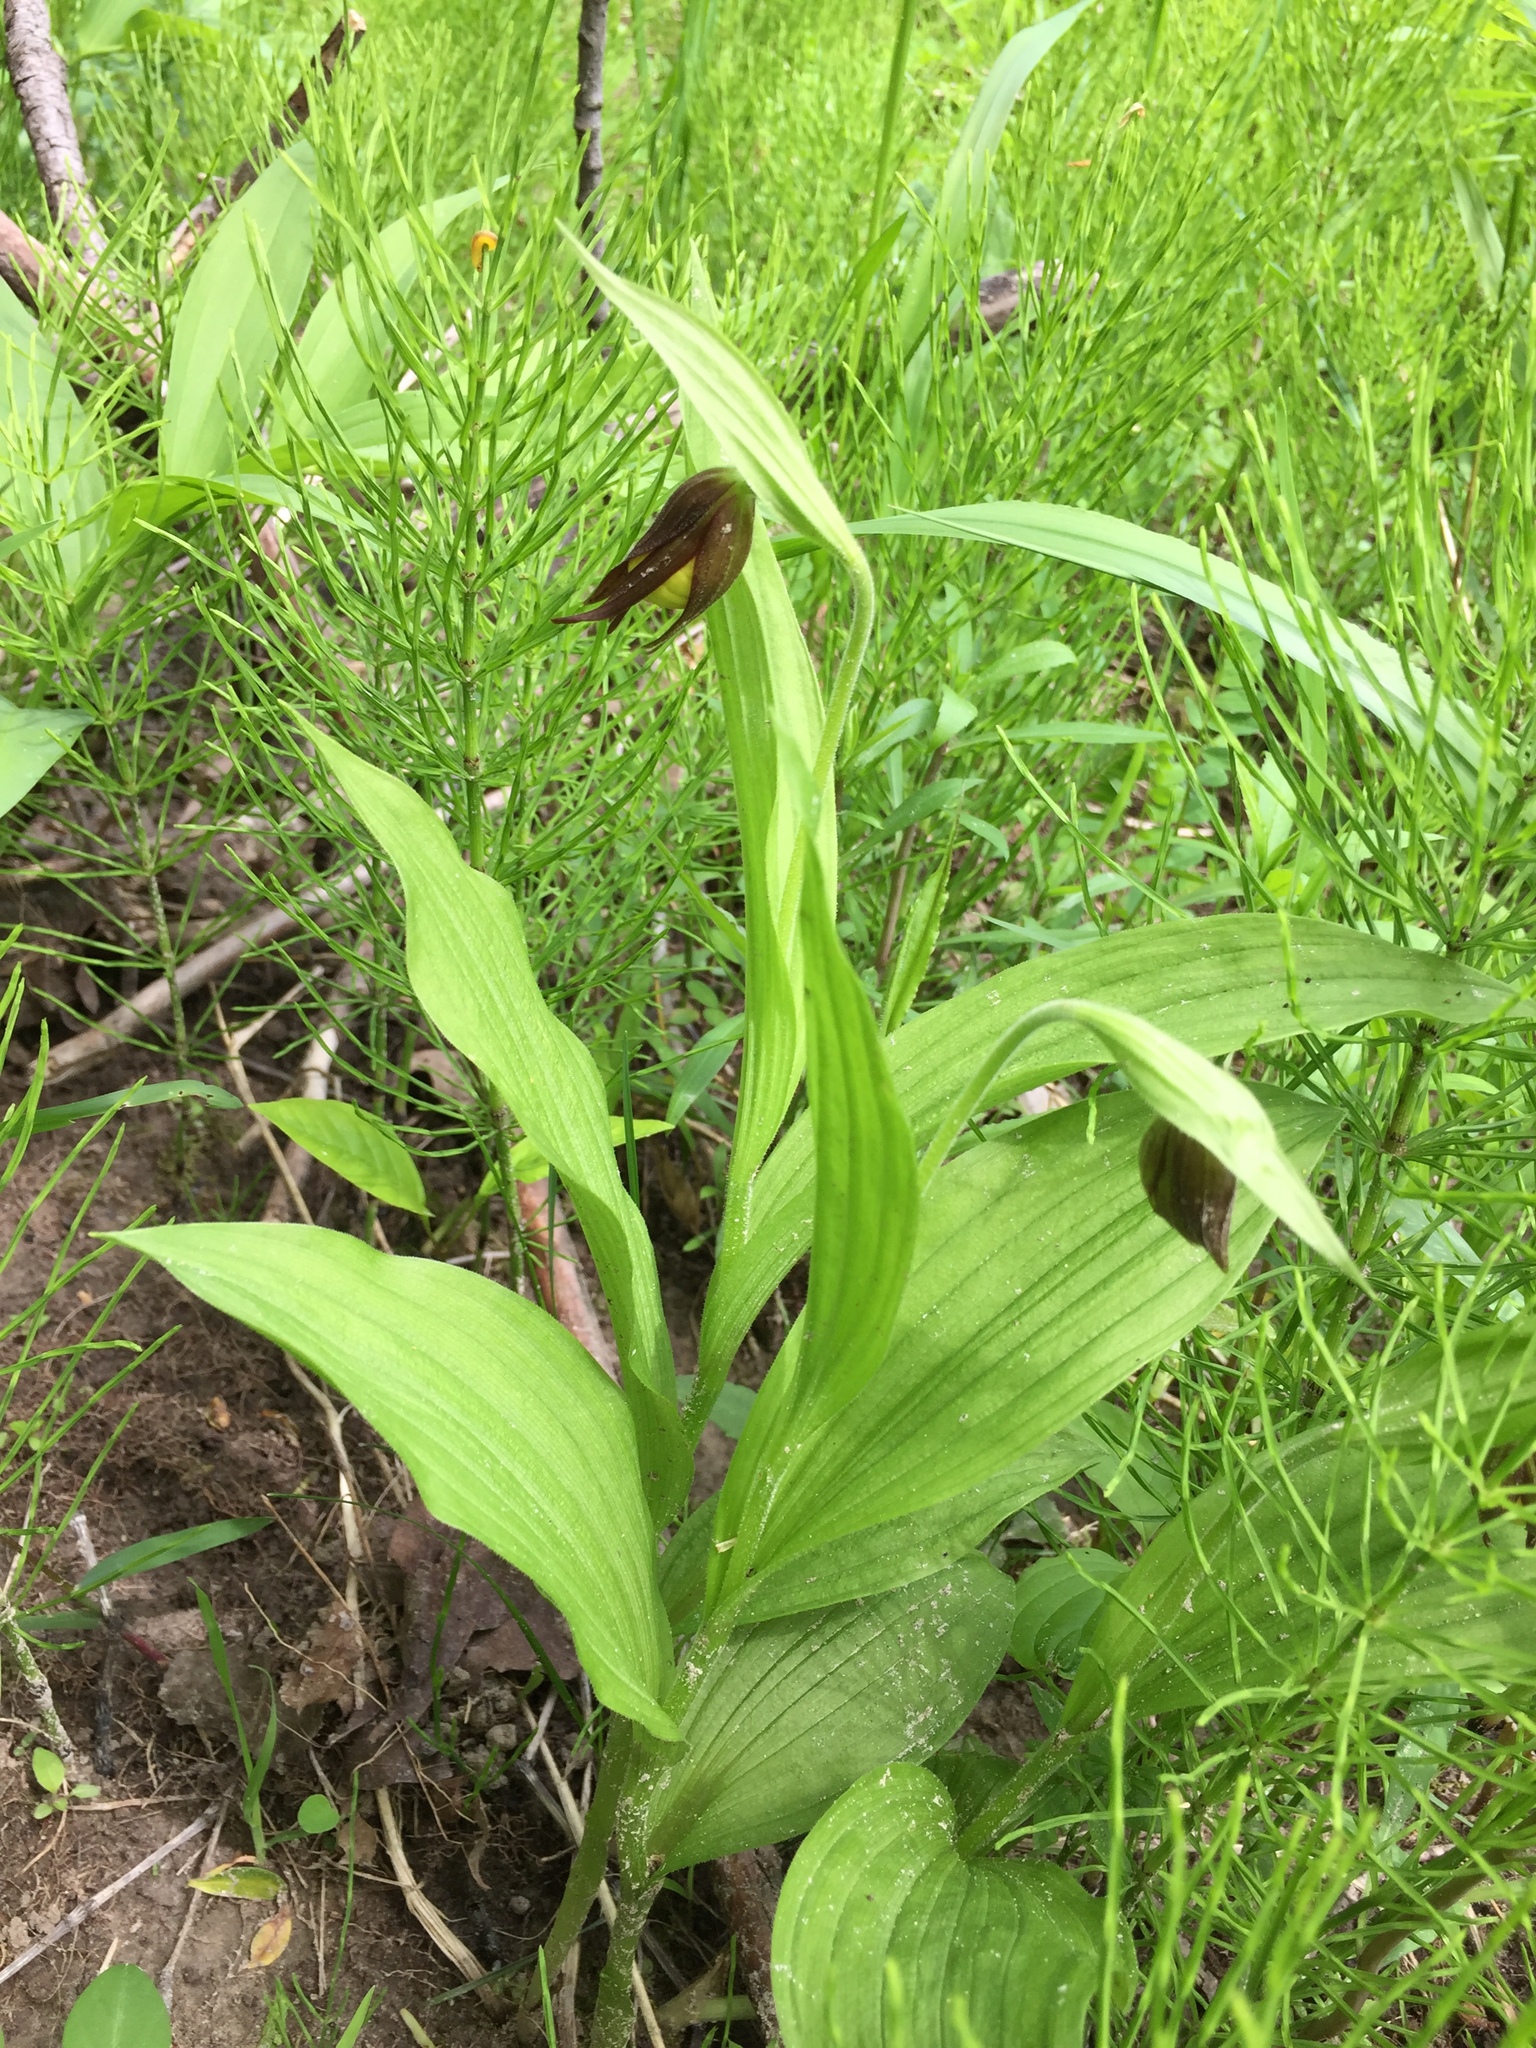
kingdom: Plantae
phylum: Tracheophyta
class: Liliopsida
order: Asparagales
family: Orchidaceae
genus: Cypripedium
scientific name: Cypripedium parviflorum
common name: American yellow lady's-slipper
